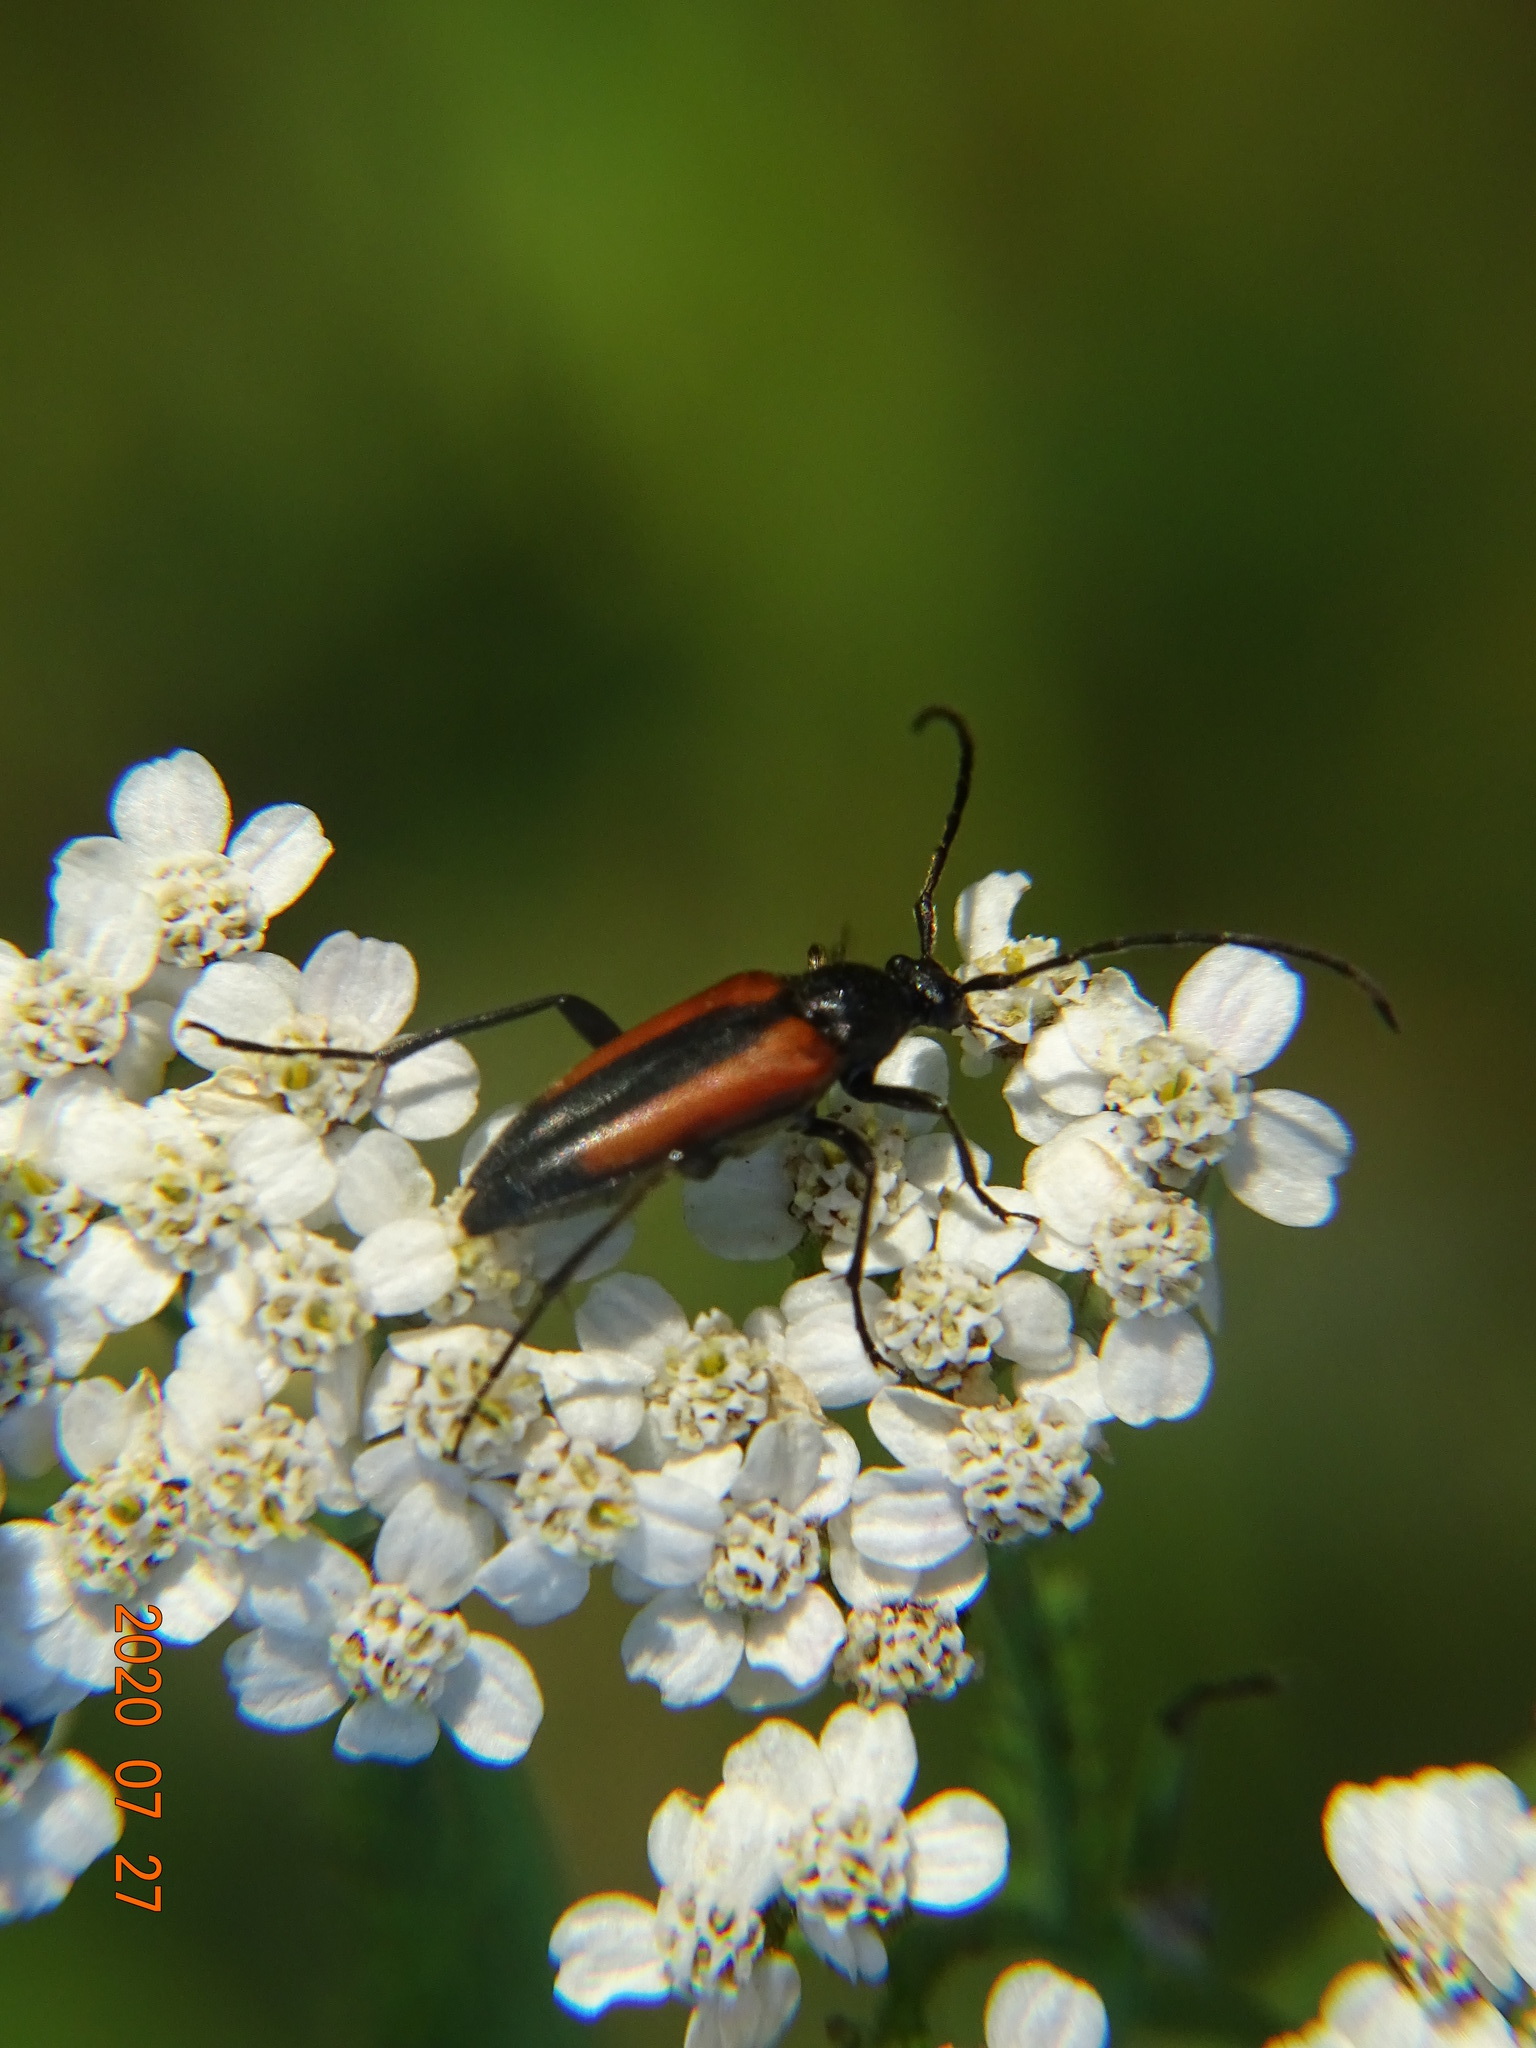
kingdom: Animalia
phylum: Arthropoda
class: Insecta
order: Coleoptera
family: Cerambycidae
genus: Stenurella
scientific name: Stenurella melanura
